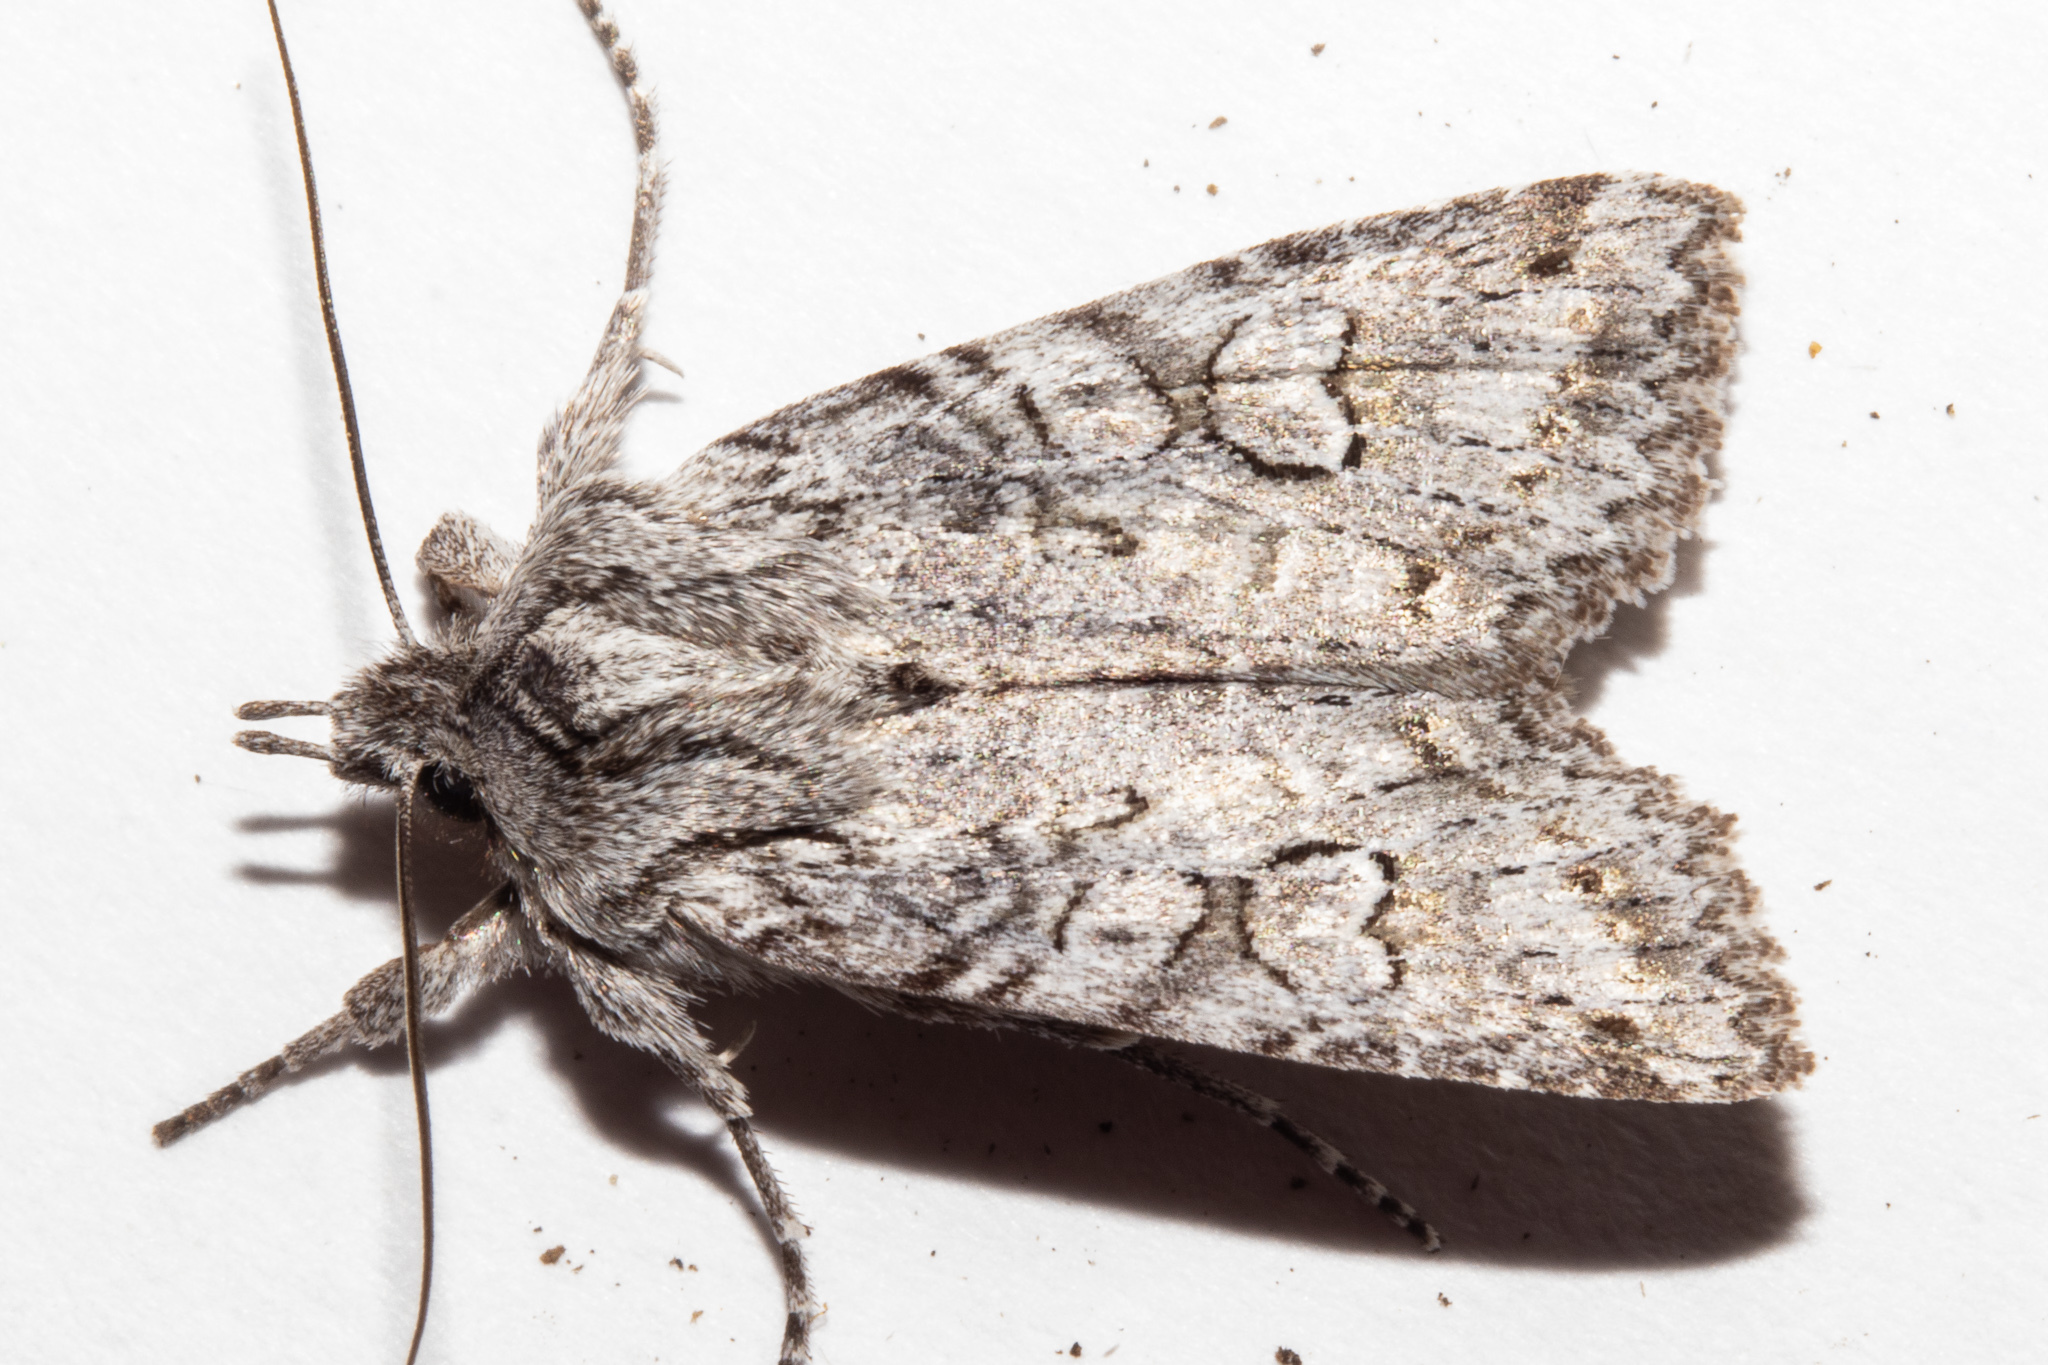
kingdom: Animalia
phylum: Arthropoda
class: Insecta
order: Lepidoptera
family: Noctuidae
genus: Physetica
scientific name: Physetica longstaffii
